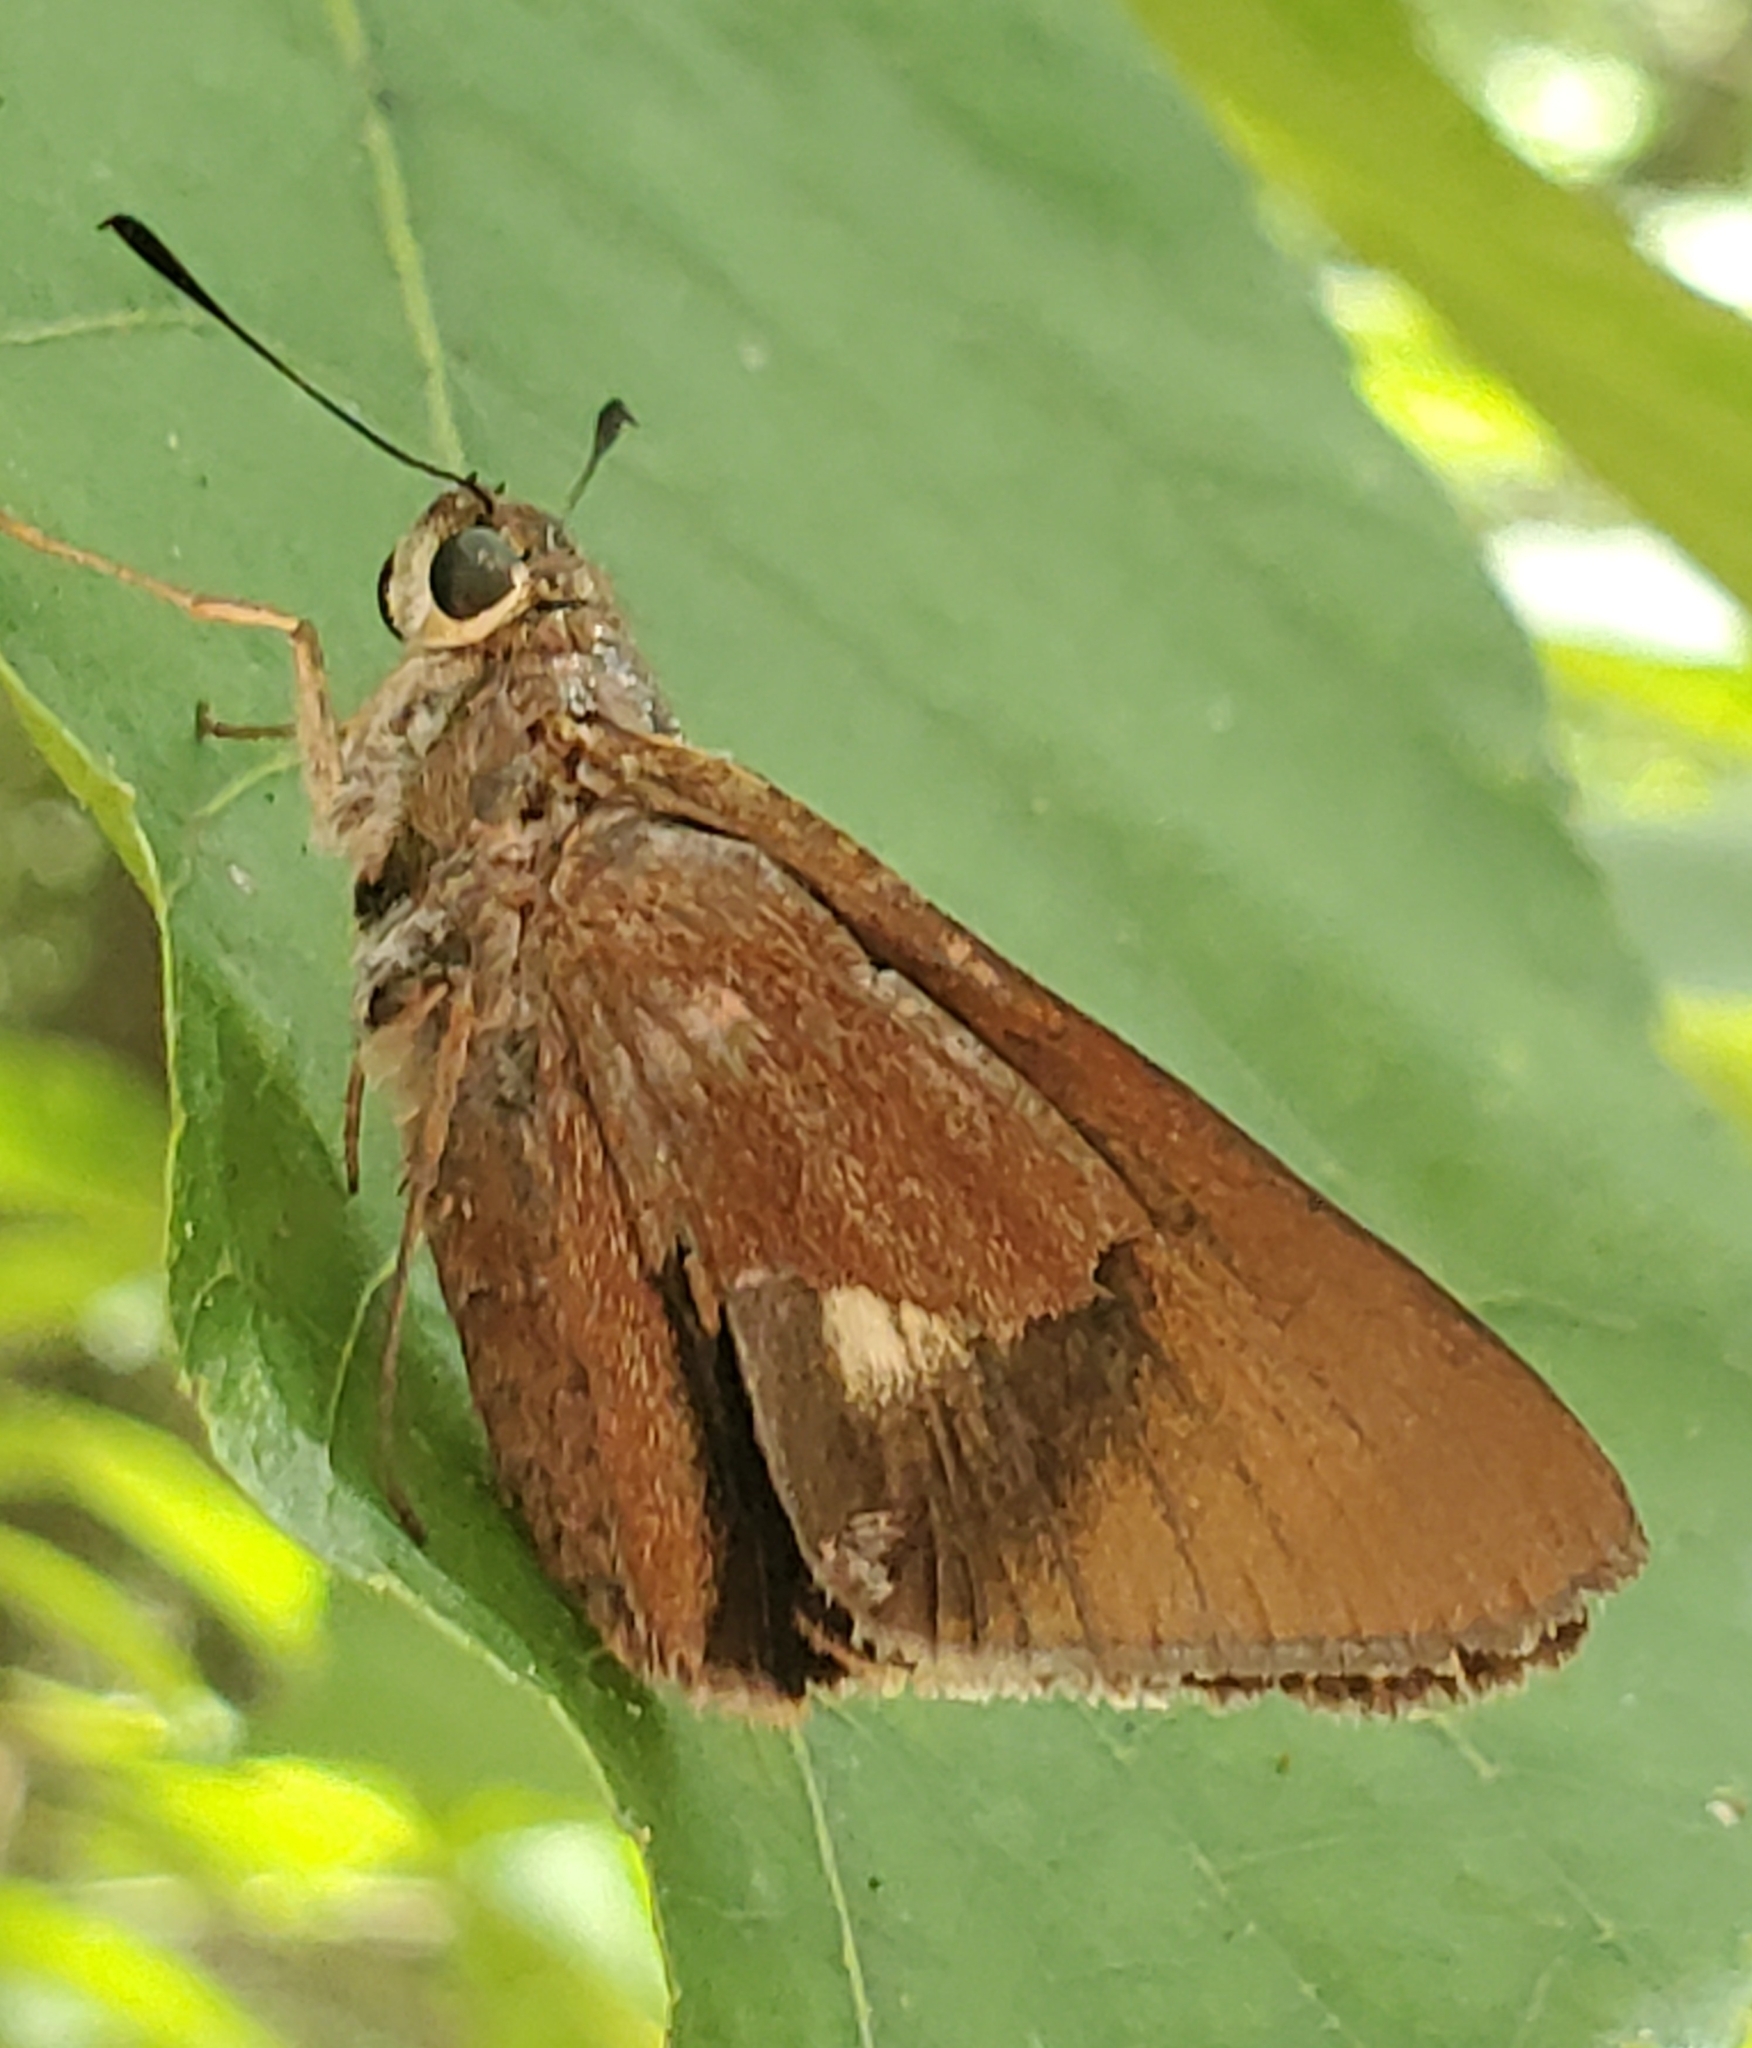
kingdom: Animalia
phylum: Arthropoda
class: Insecta
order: Lepidoptera
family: Hesperiidae
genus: Asbolis
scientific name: Asbolis capucinus
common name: Monk skipper
